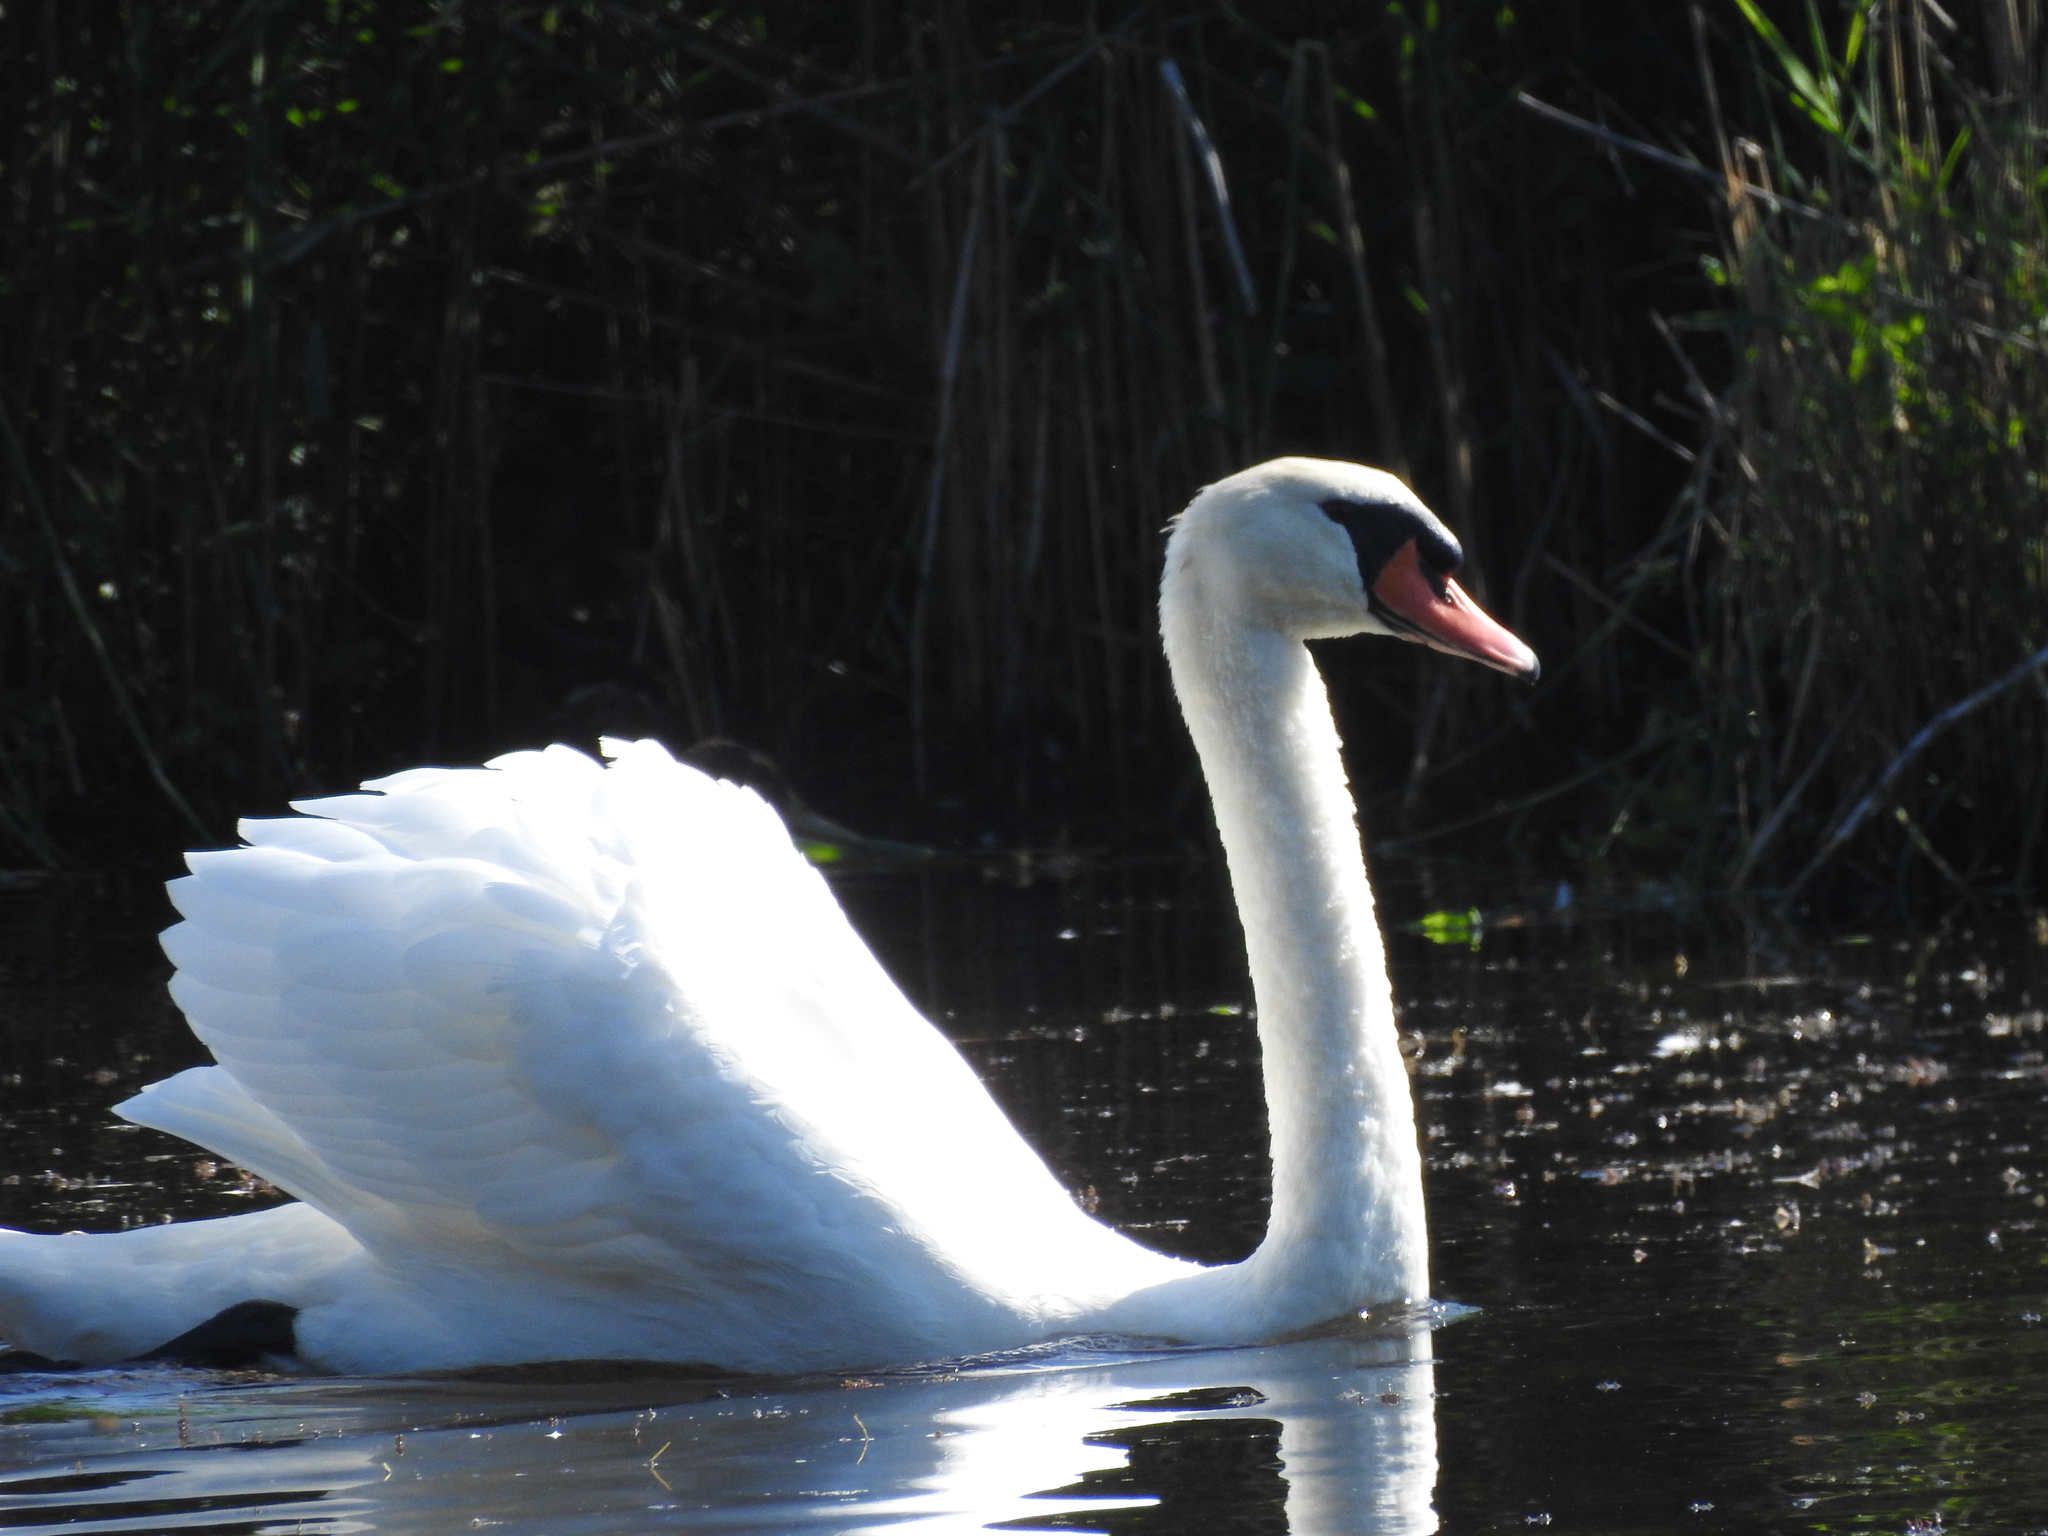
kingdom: Animalia
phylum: Chordata
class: Aves
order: Anseriformes
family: Anatidae
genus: Cygnus
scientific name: Cygnus olor
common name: Mute swan
